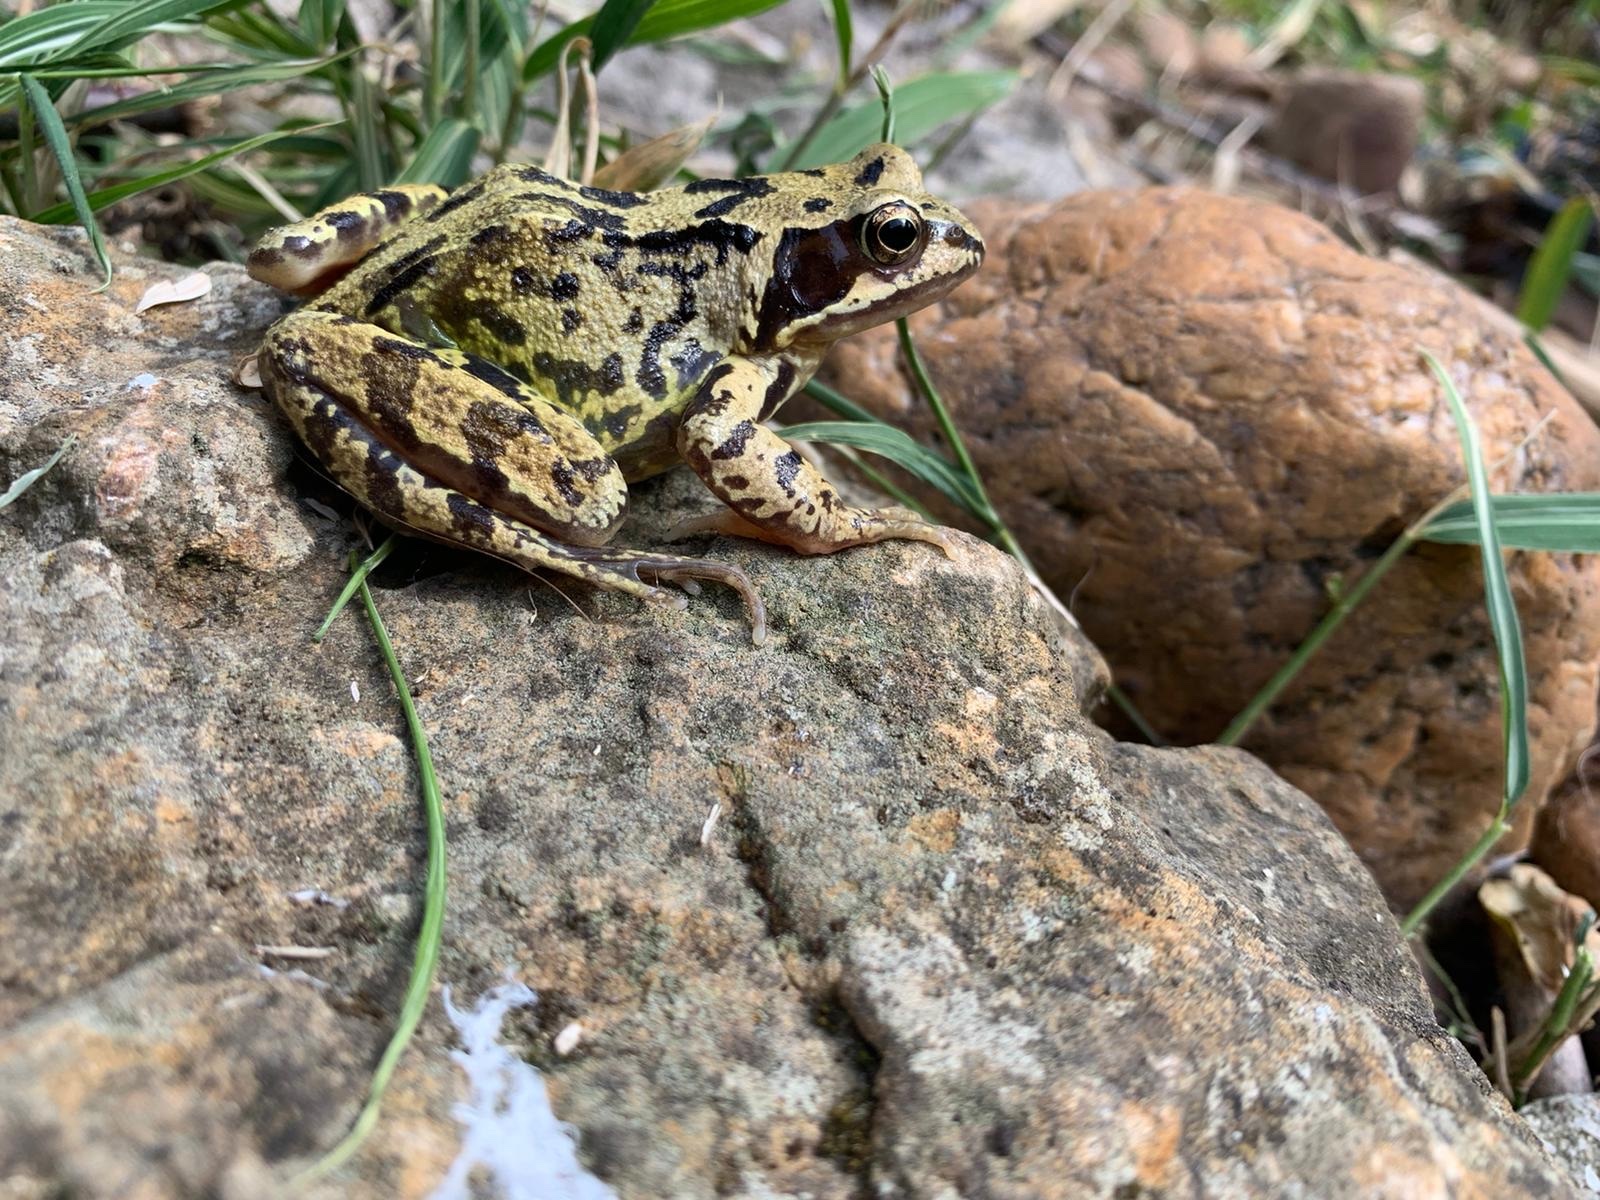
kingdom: Animalia
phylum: Chordata
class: Amphibia
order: Anura
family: Ranidae
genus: Rana
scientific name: Rana temporaria
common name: Common frog
